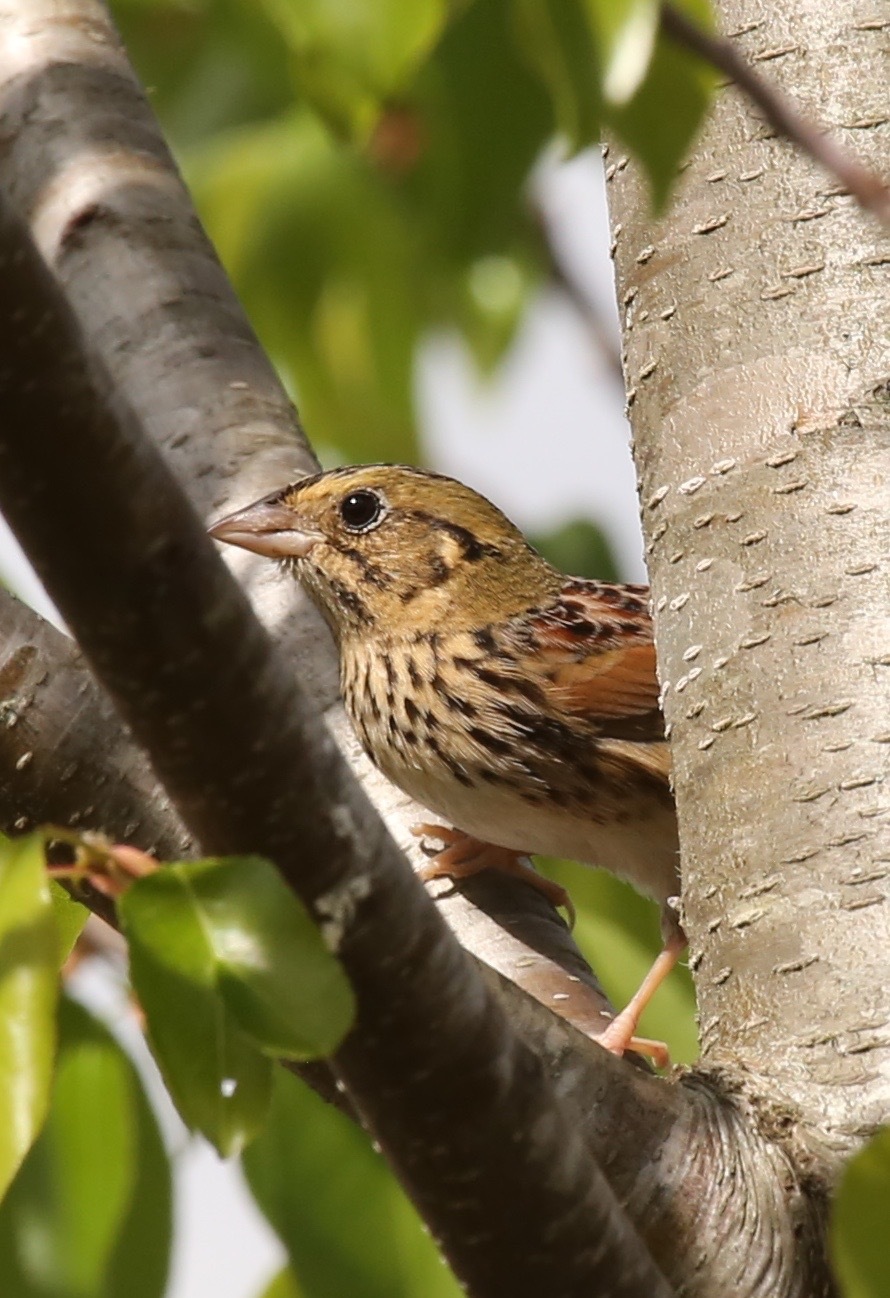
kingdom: Animalia
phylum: Chordata
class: Aves
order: Passeriformes
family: Passerellidae
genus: Centronyx
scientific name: Centronyx henslowii
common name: Henslow's sparrow
